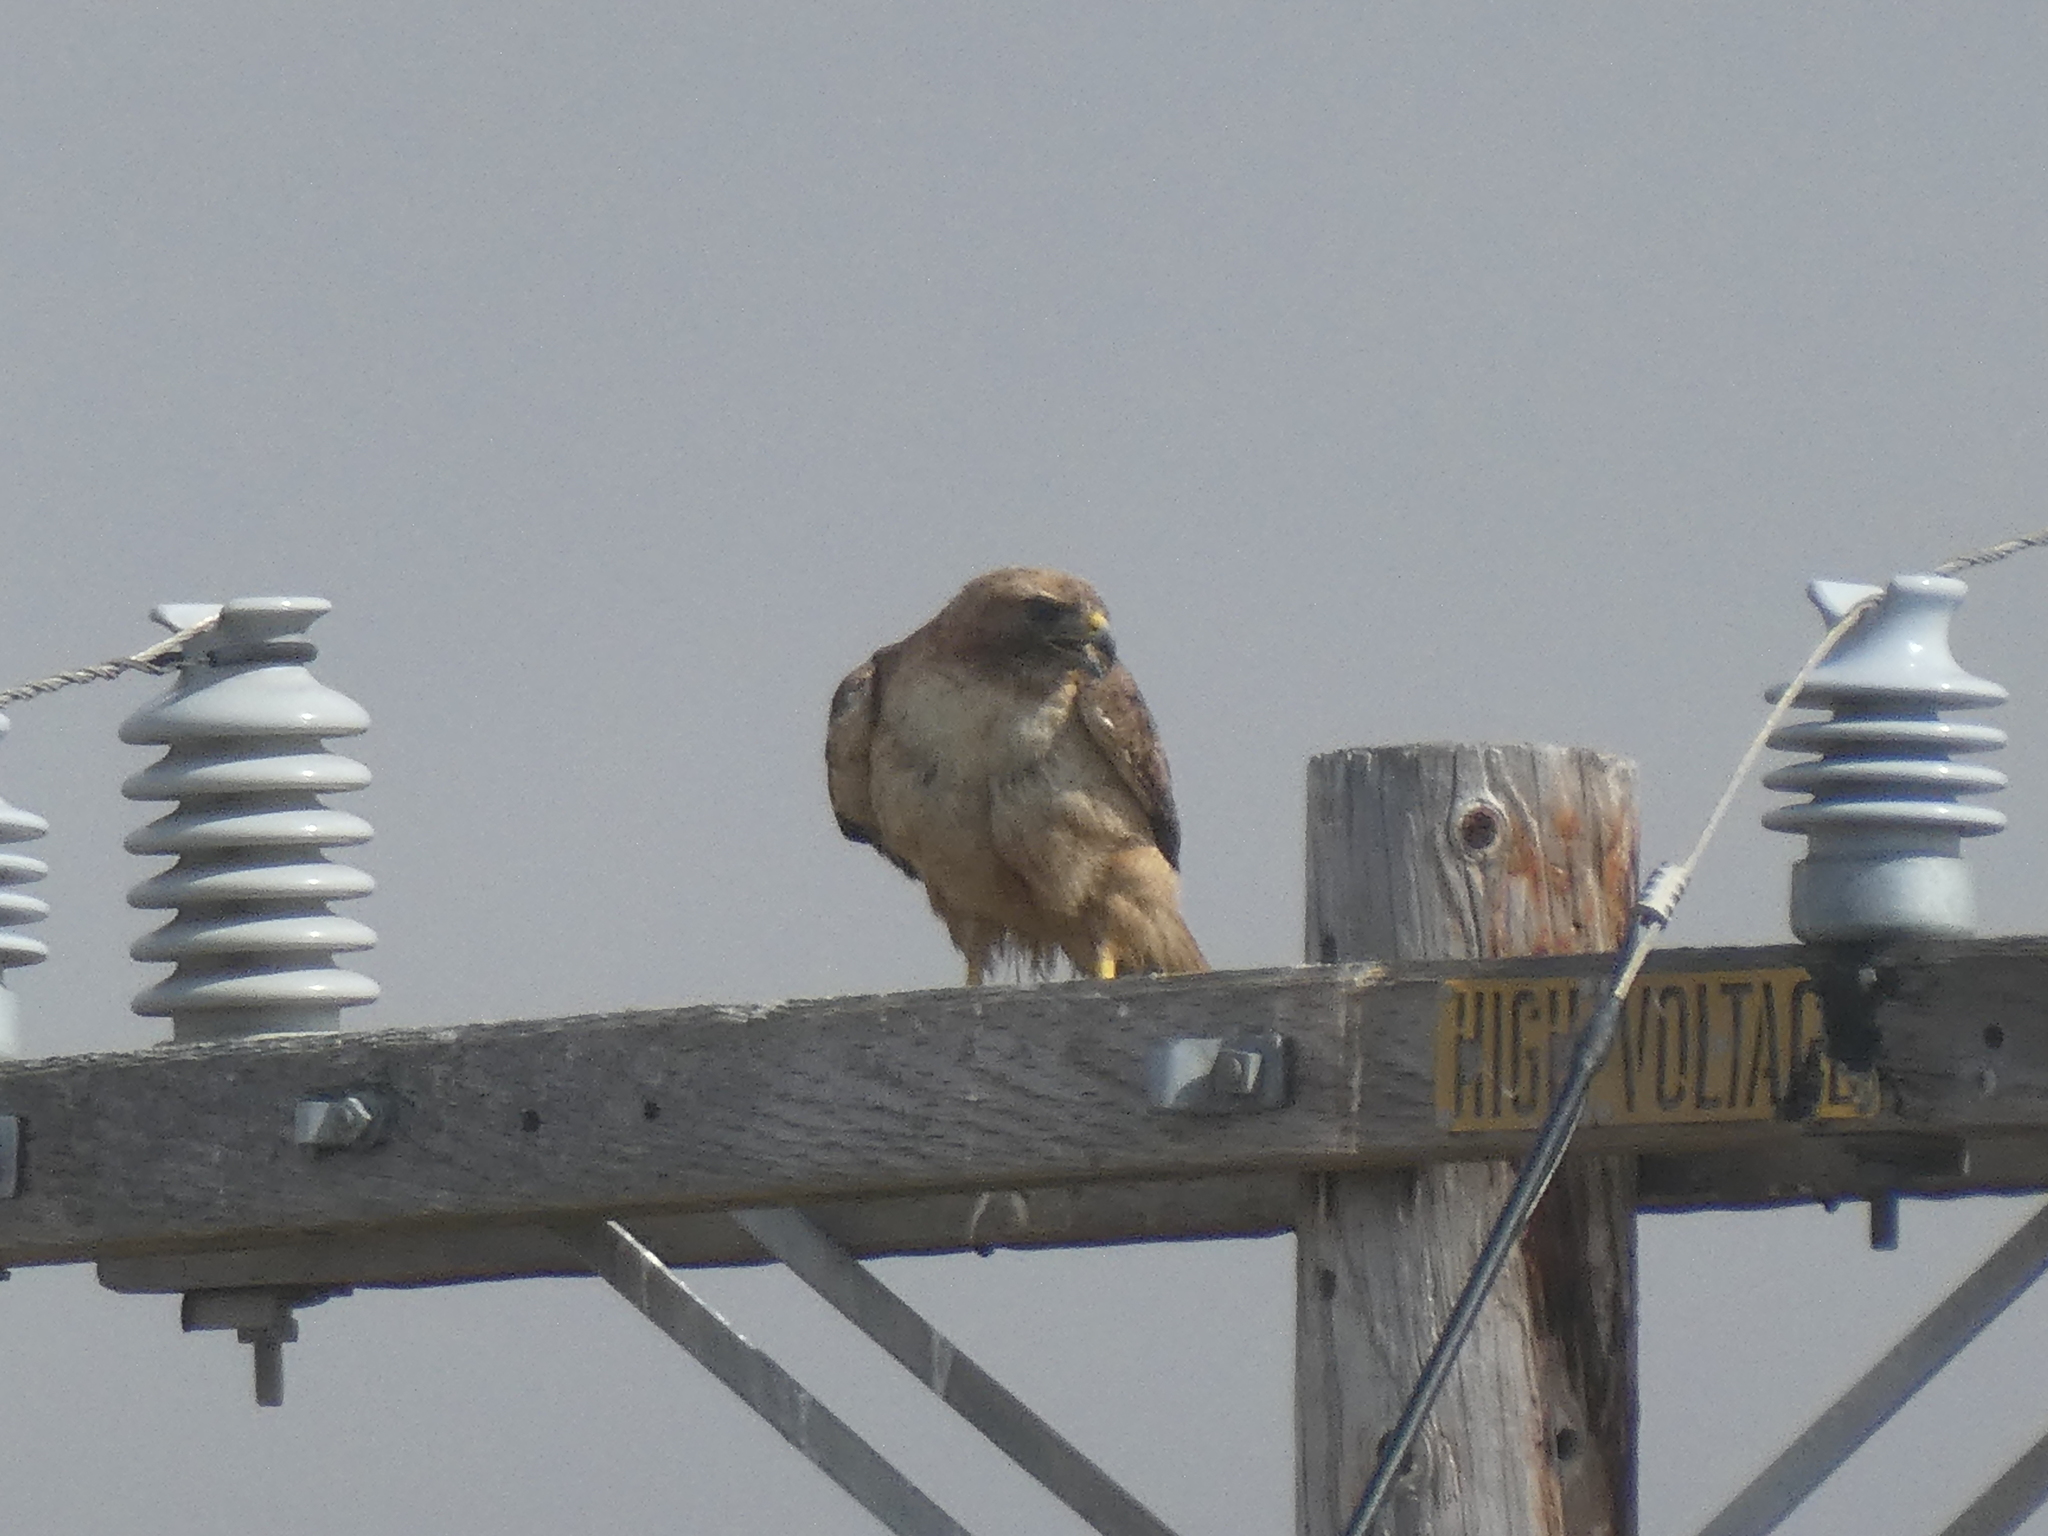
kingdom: Animalia
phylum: Chordata
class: Aves
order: Accipitriformes
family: Accipitridae
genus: Buteo
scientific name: Buteo jamaicensis
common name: Red-tailed hawk
